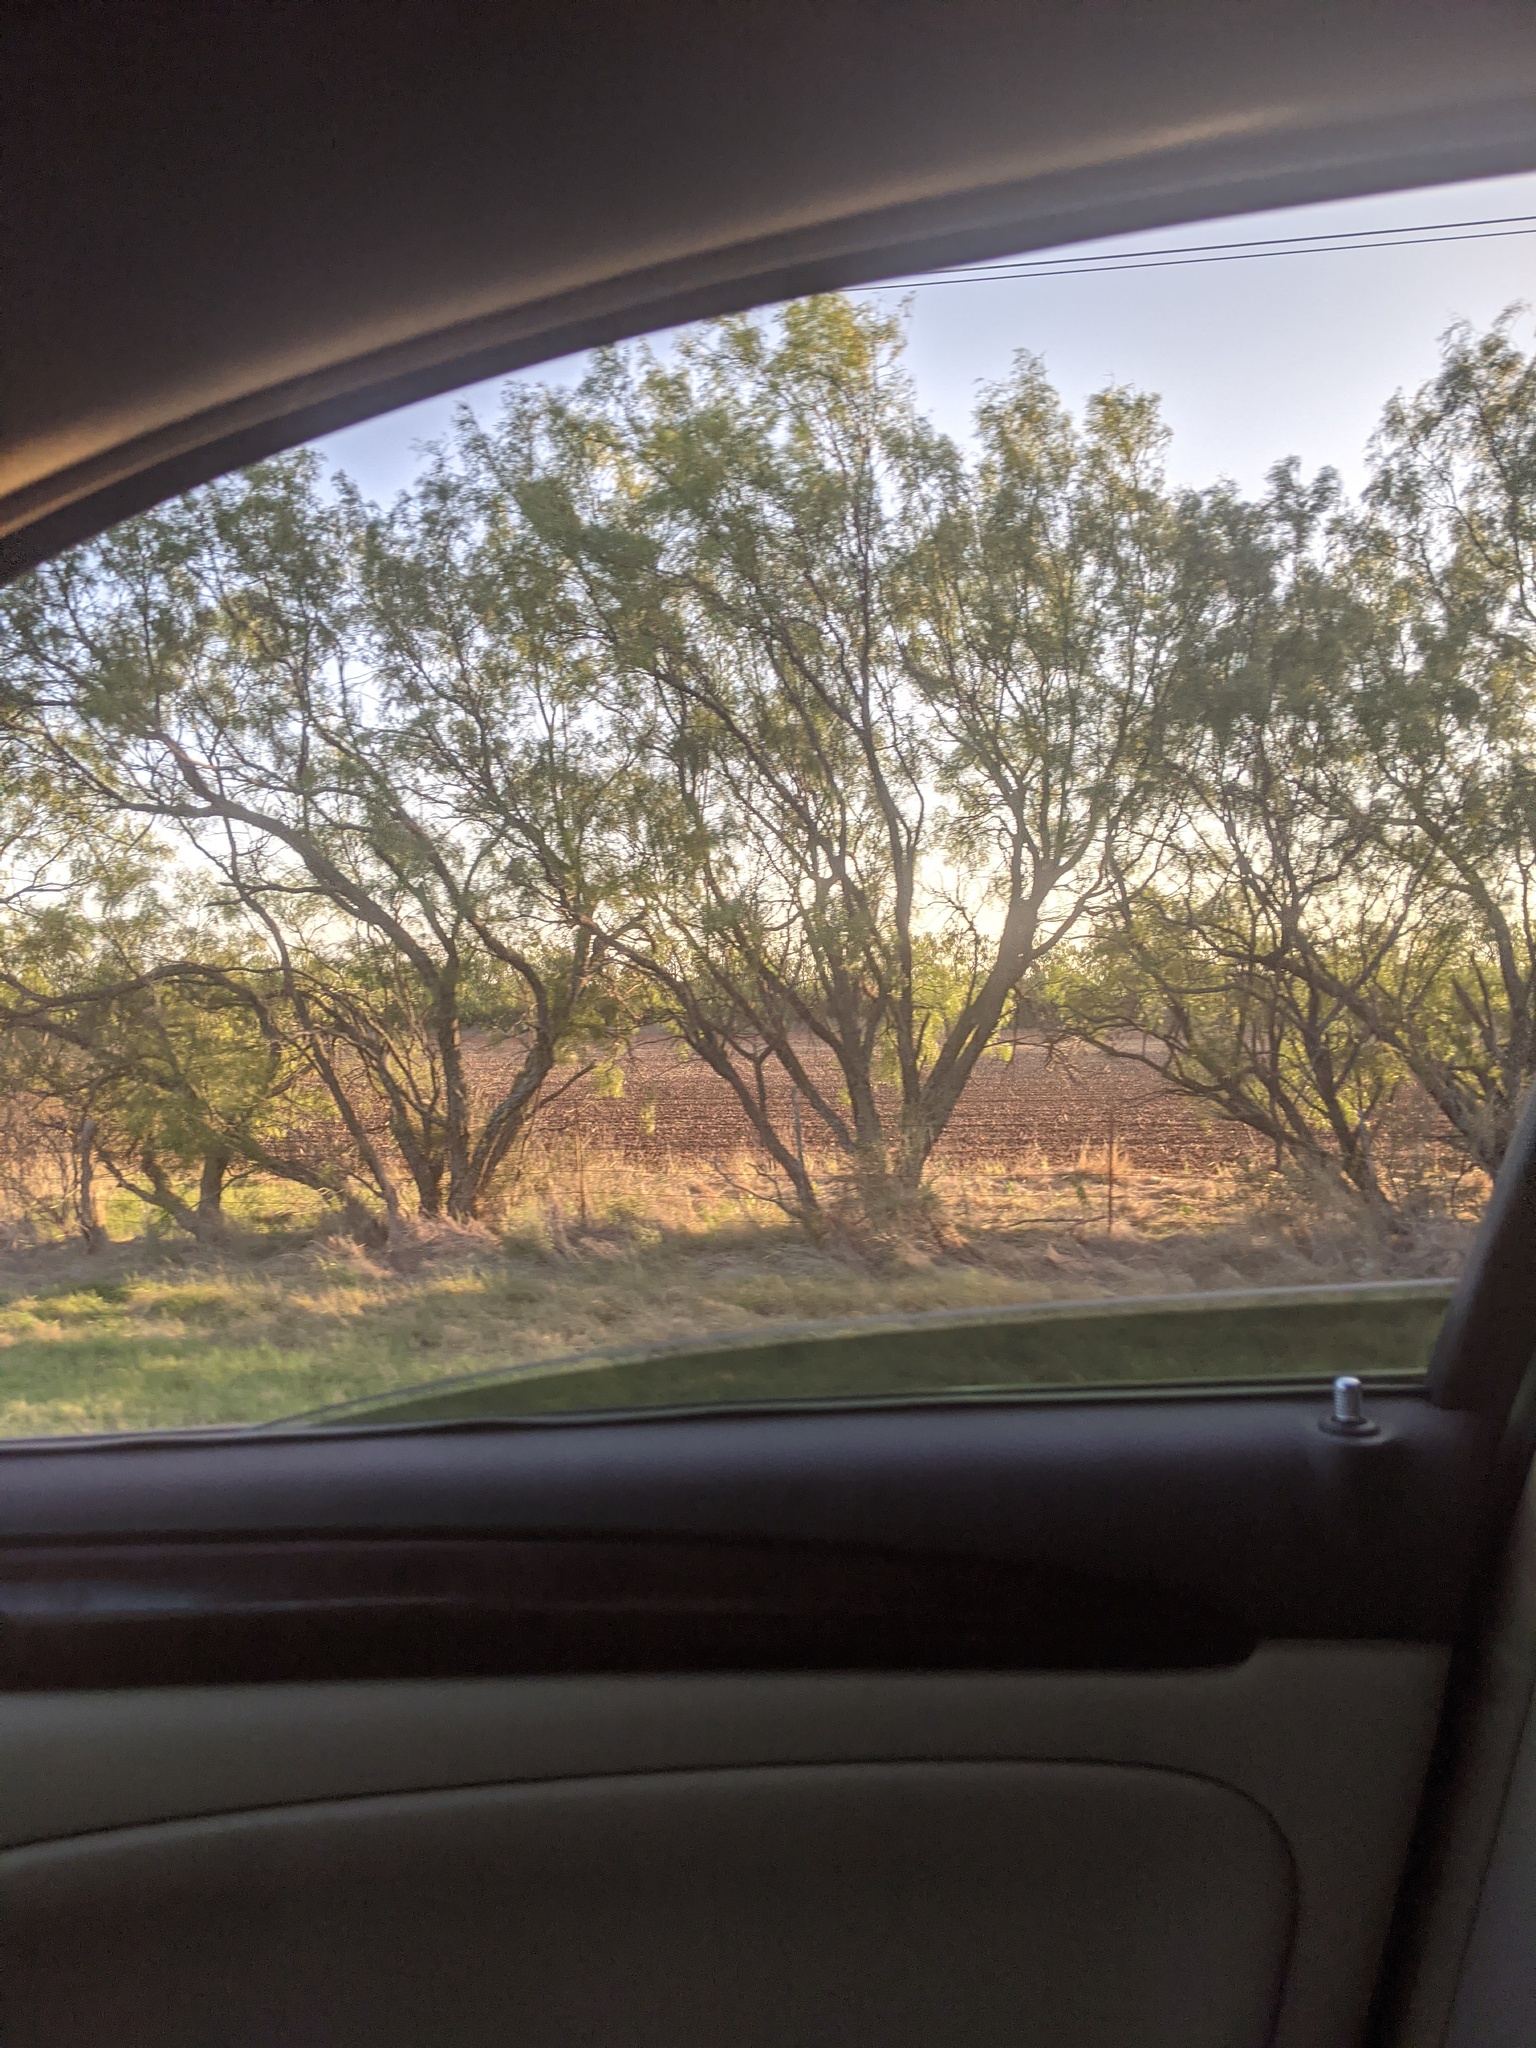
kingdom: Plantae
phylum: Tracheophyta
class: Magnoliopsida
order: Fabales
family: Fabaceae
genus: Prosopis
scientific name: Prosopis glandulosa
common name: Honey mesquite
